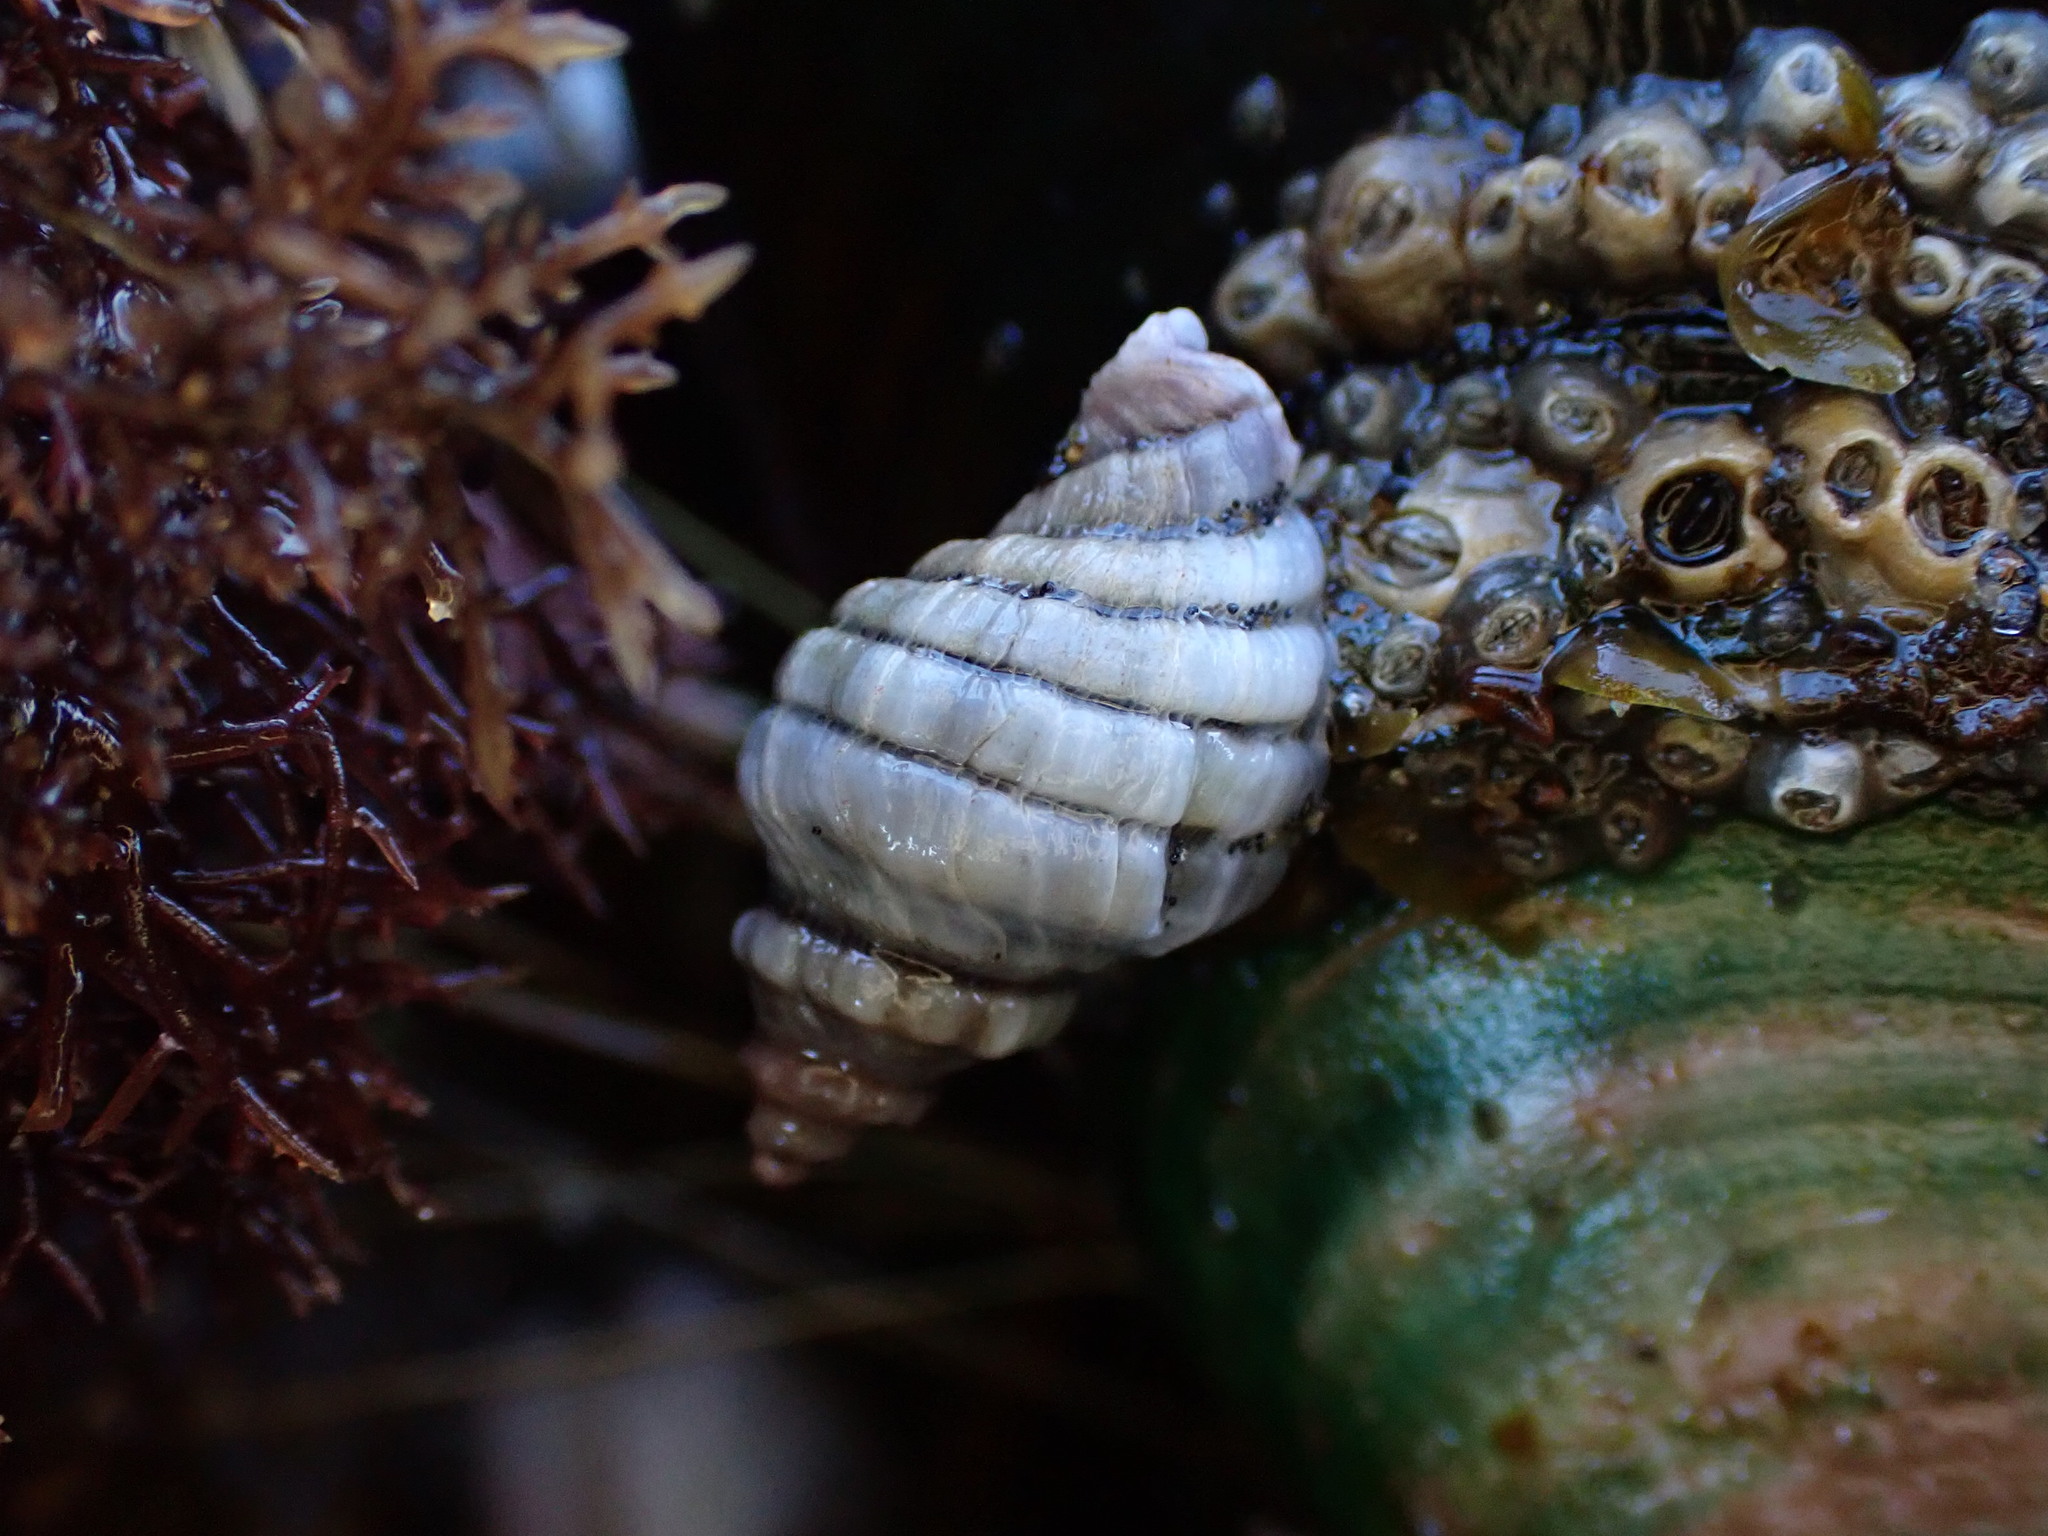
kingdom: Animalia
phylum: Mollusca
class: Gastropoda
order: Neogastropoda
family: Muricidae
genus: Paratrophon
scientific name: Paratrophon cheesemani
